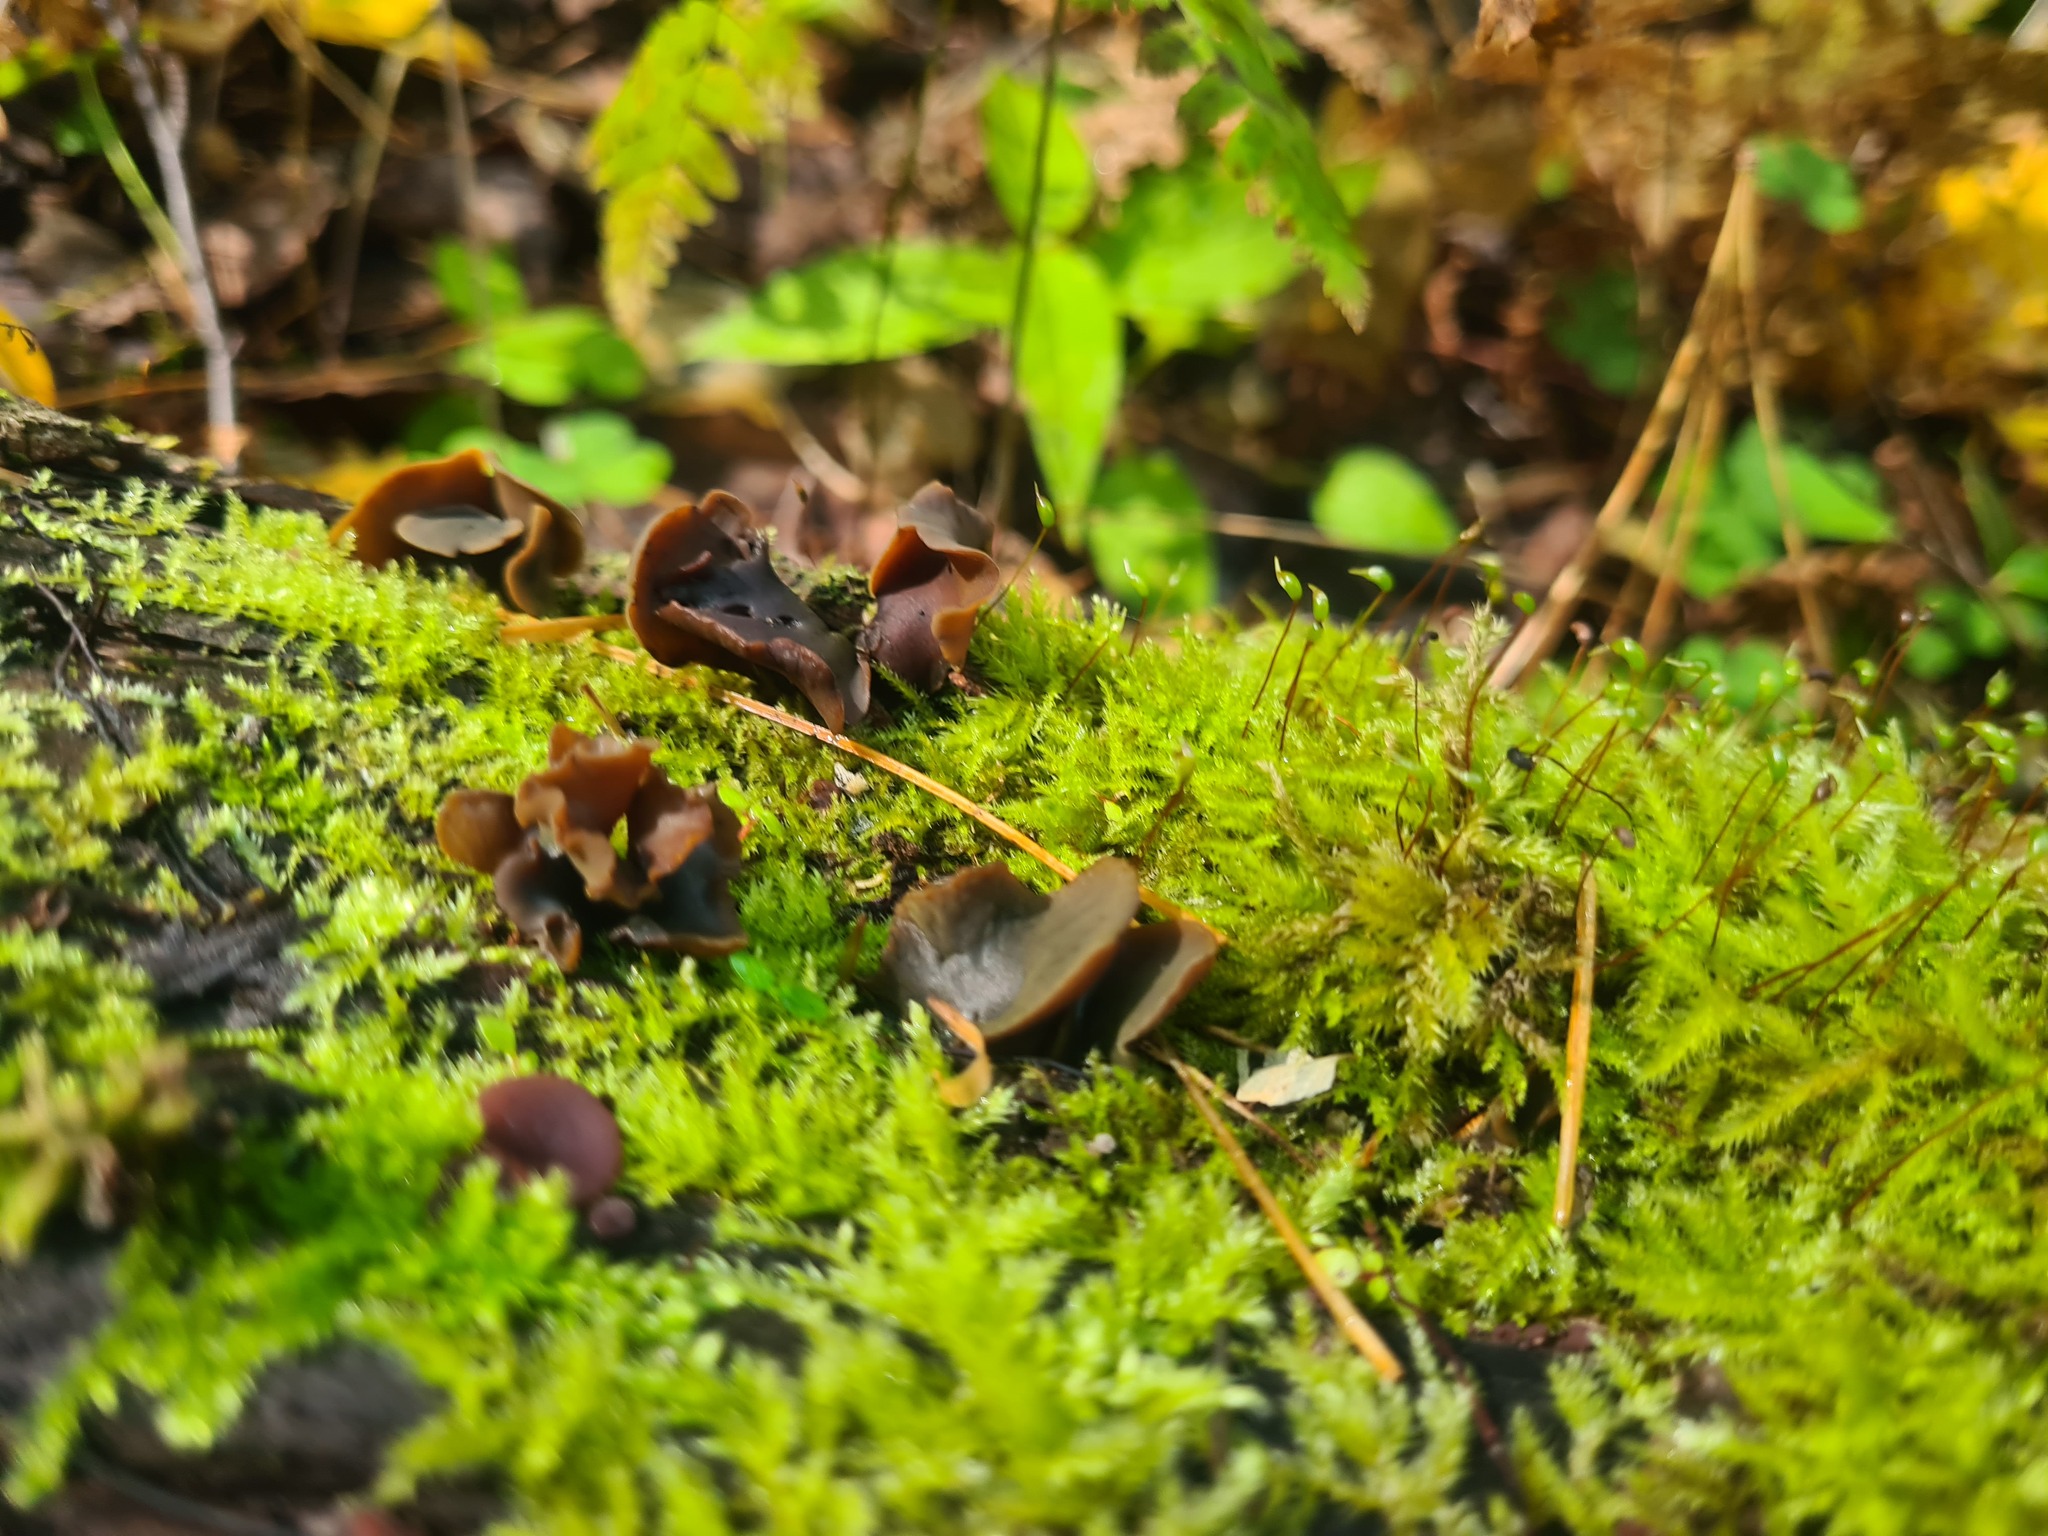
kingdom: Fungi
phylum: Ascomycota
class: Leotiomycetes
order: Helotiales
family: Cenangiaceae
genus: Chlorencoelia
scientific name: Chlorencoelia versiformis
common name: Flea's ear
